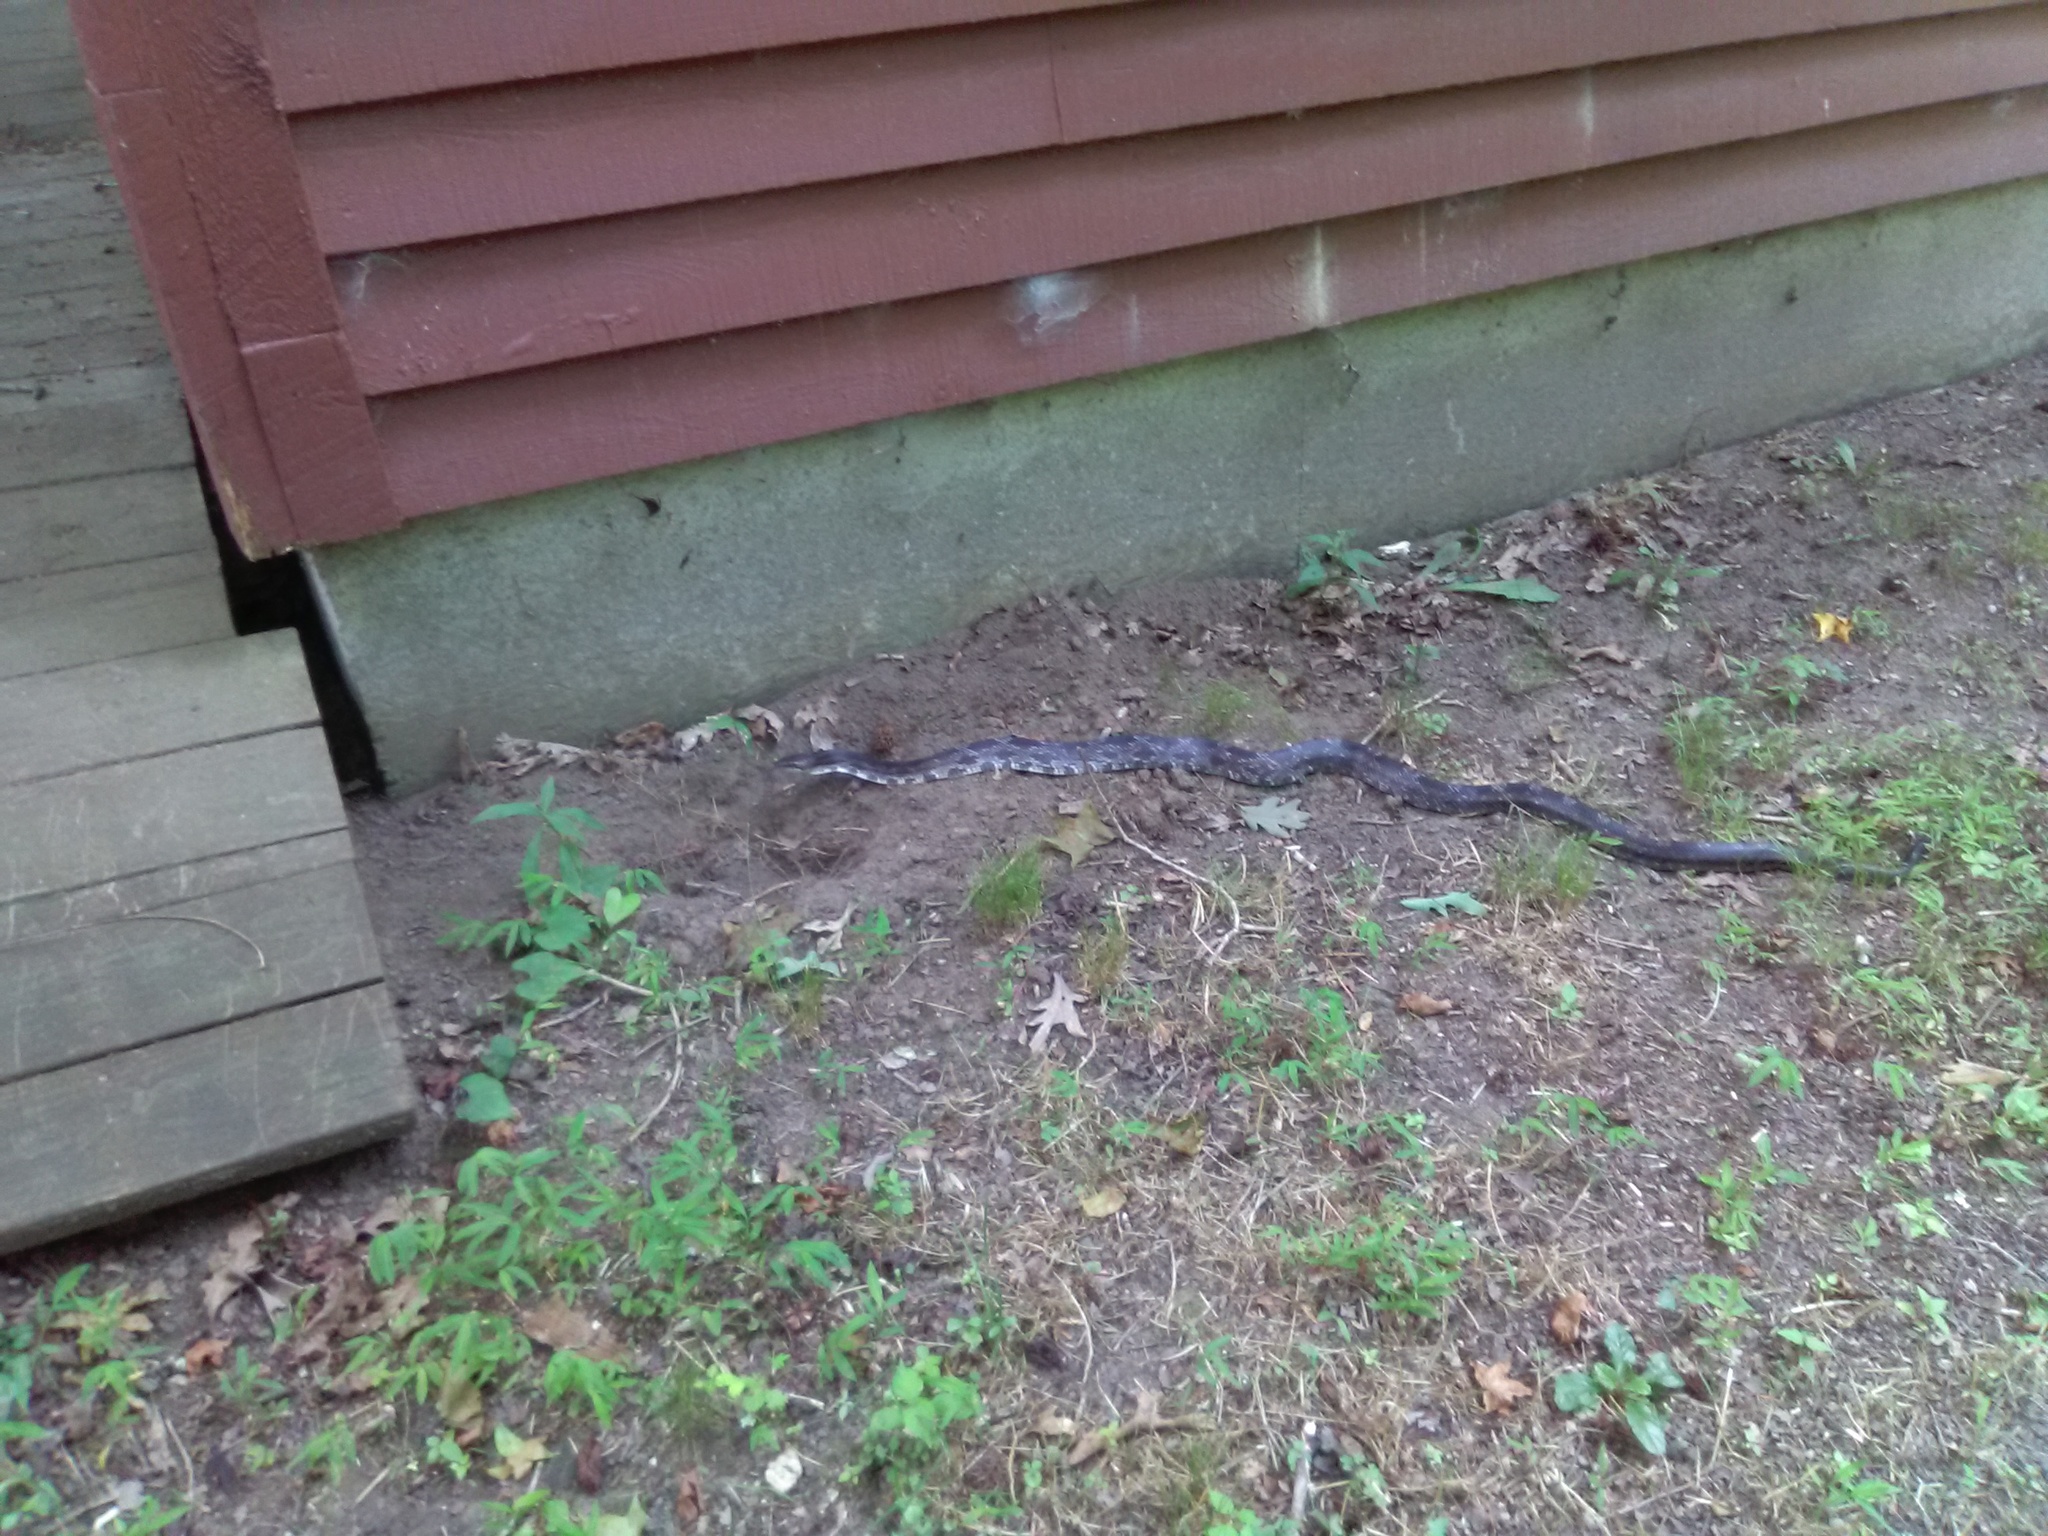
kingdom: Animalia
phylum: Chordata
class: Squamata
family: Colubridae
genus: Pantherophis
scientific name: Pantherophis spiloides
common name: Gray rat snake
